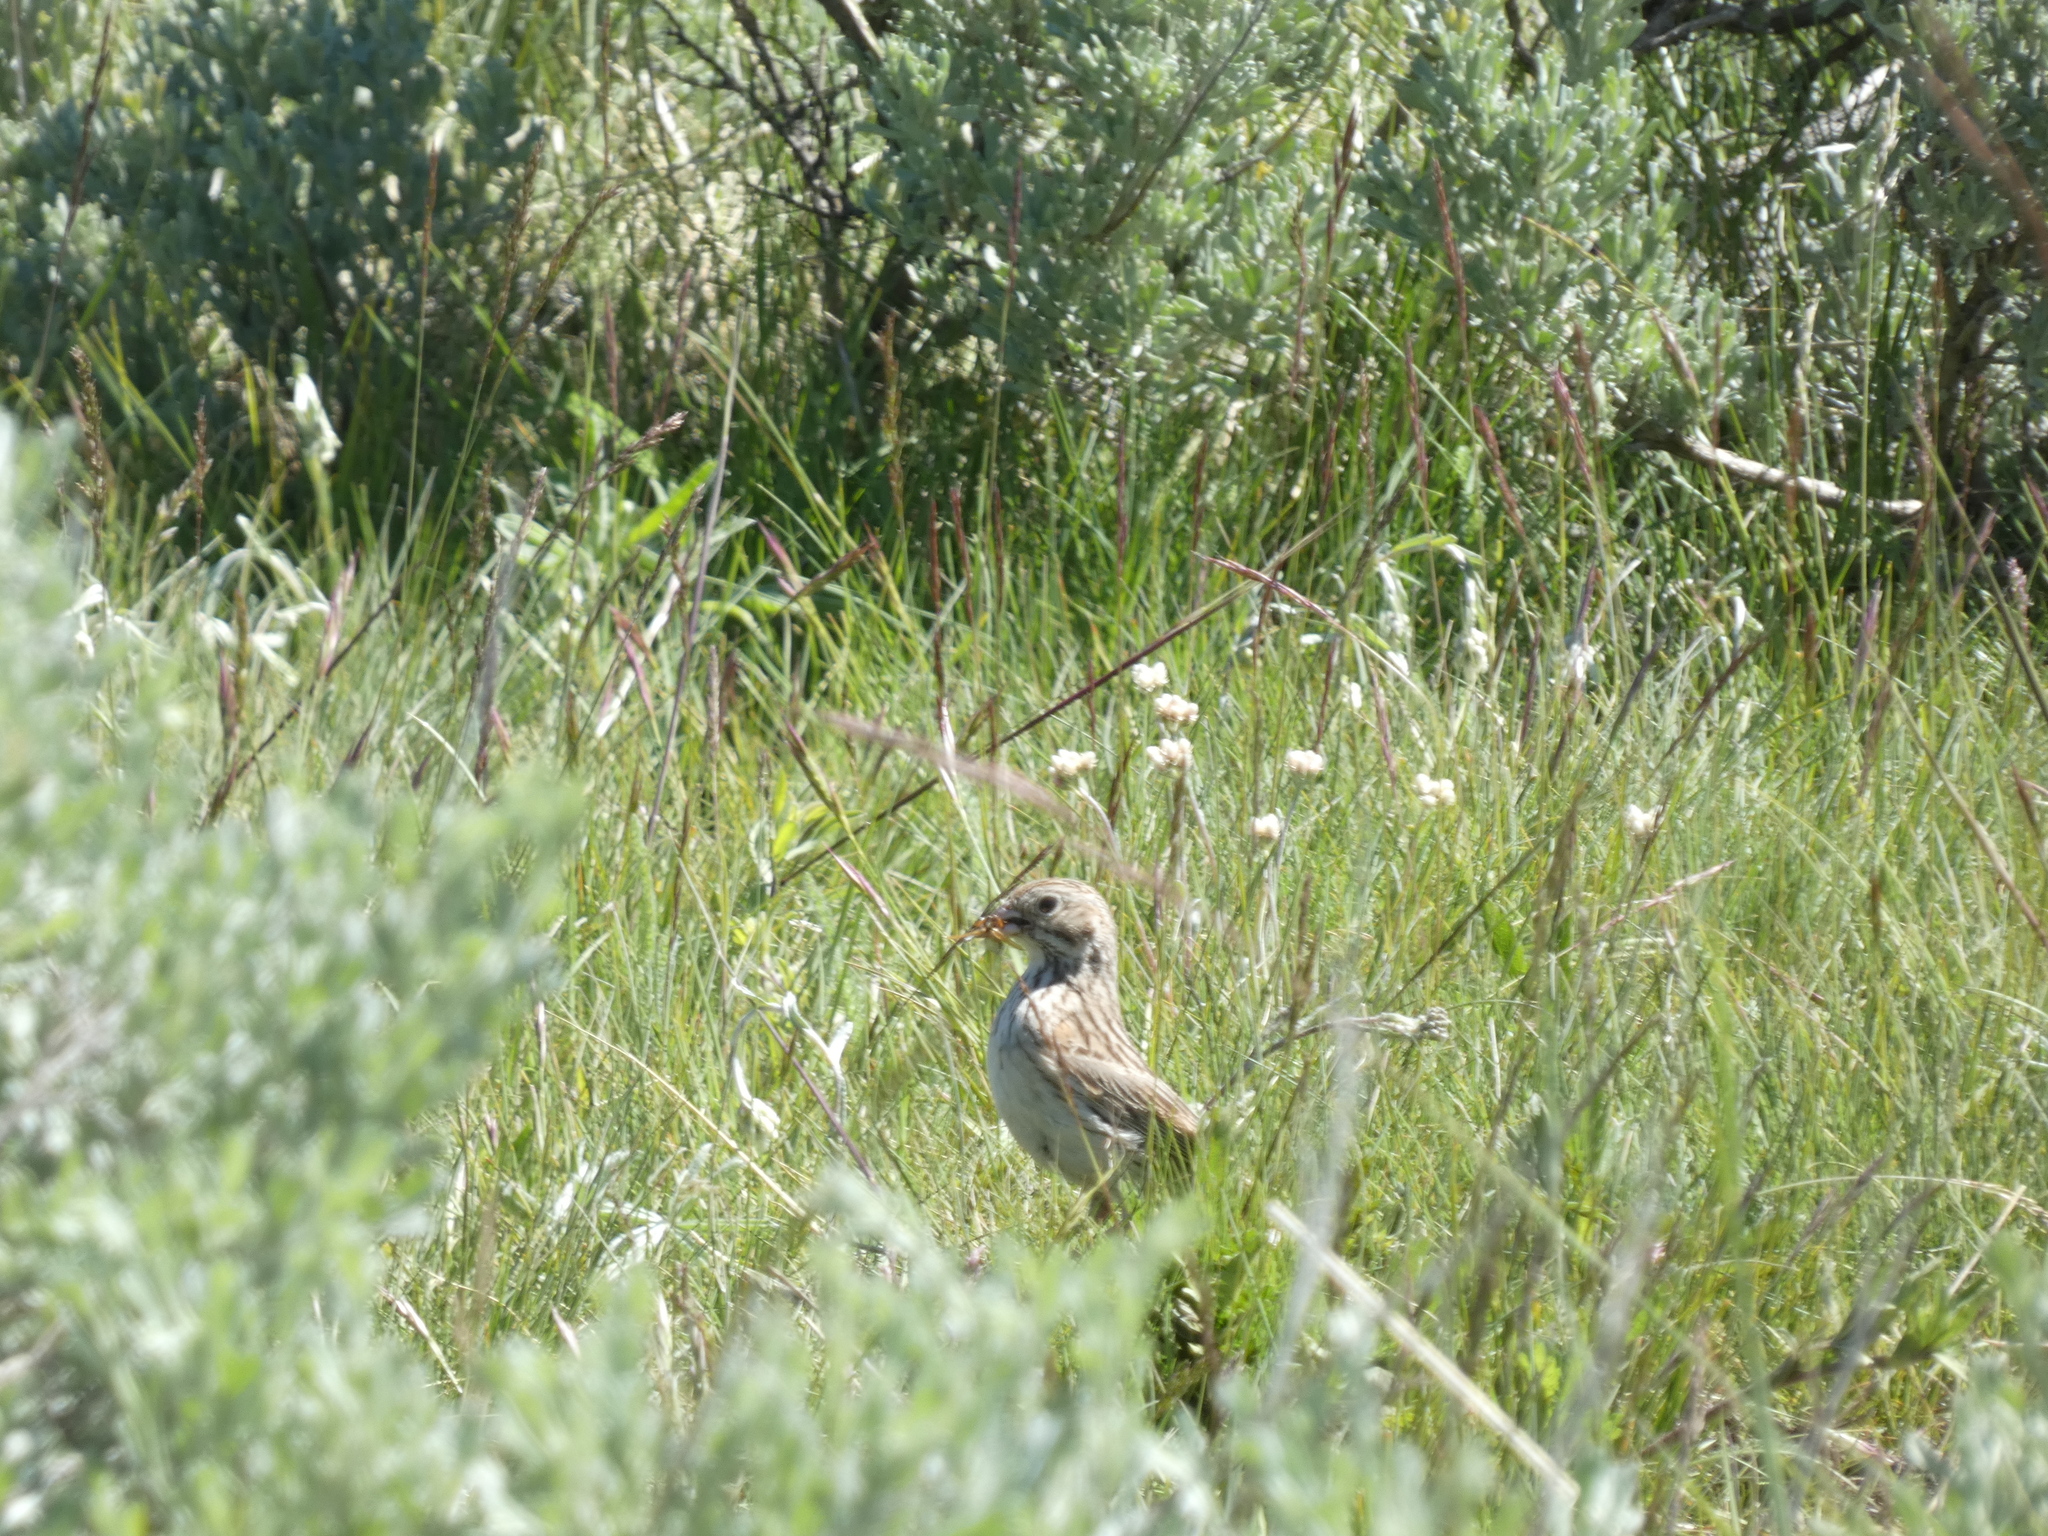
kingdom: Animalia
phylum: Chordata
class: Aves
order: Passeriformes
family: Passerellidae
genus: Pooecetes
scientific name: Pooecetes gramineus
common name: Vesper sparrow
